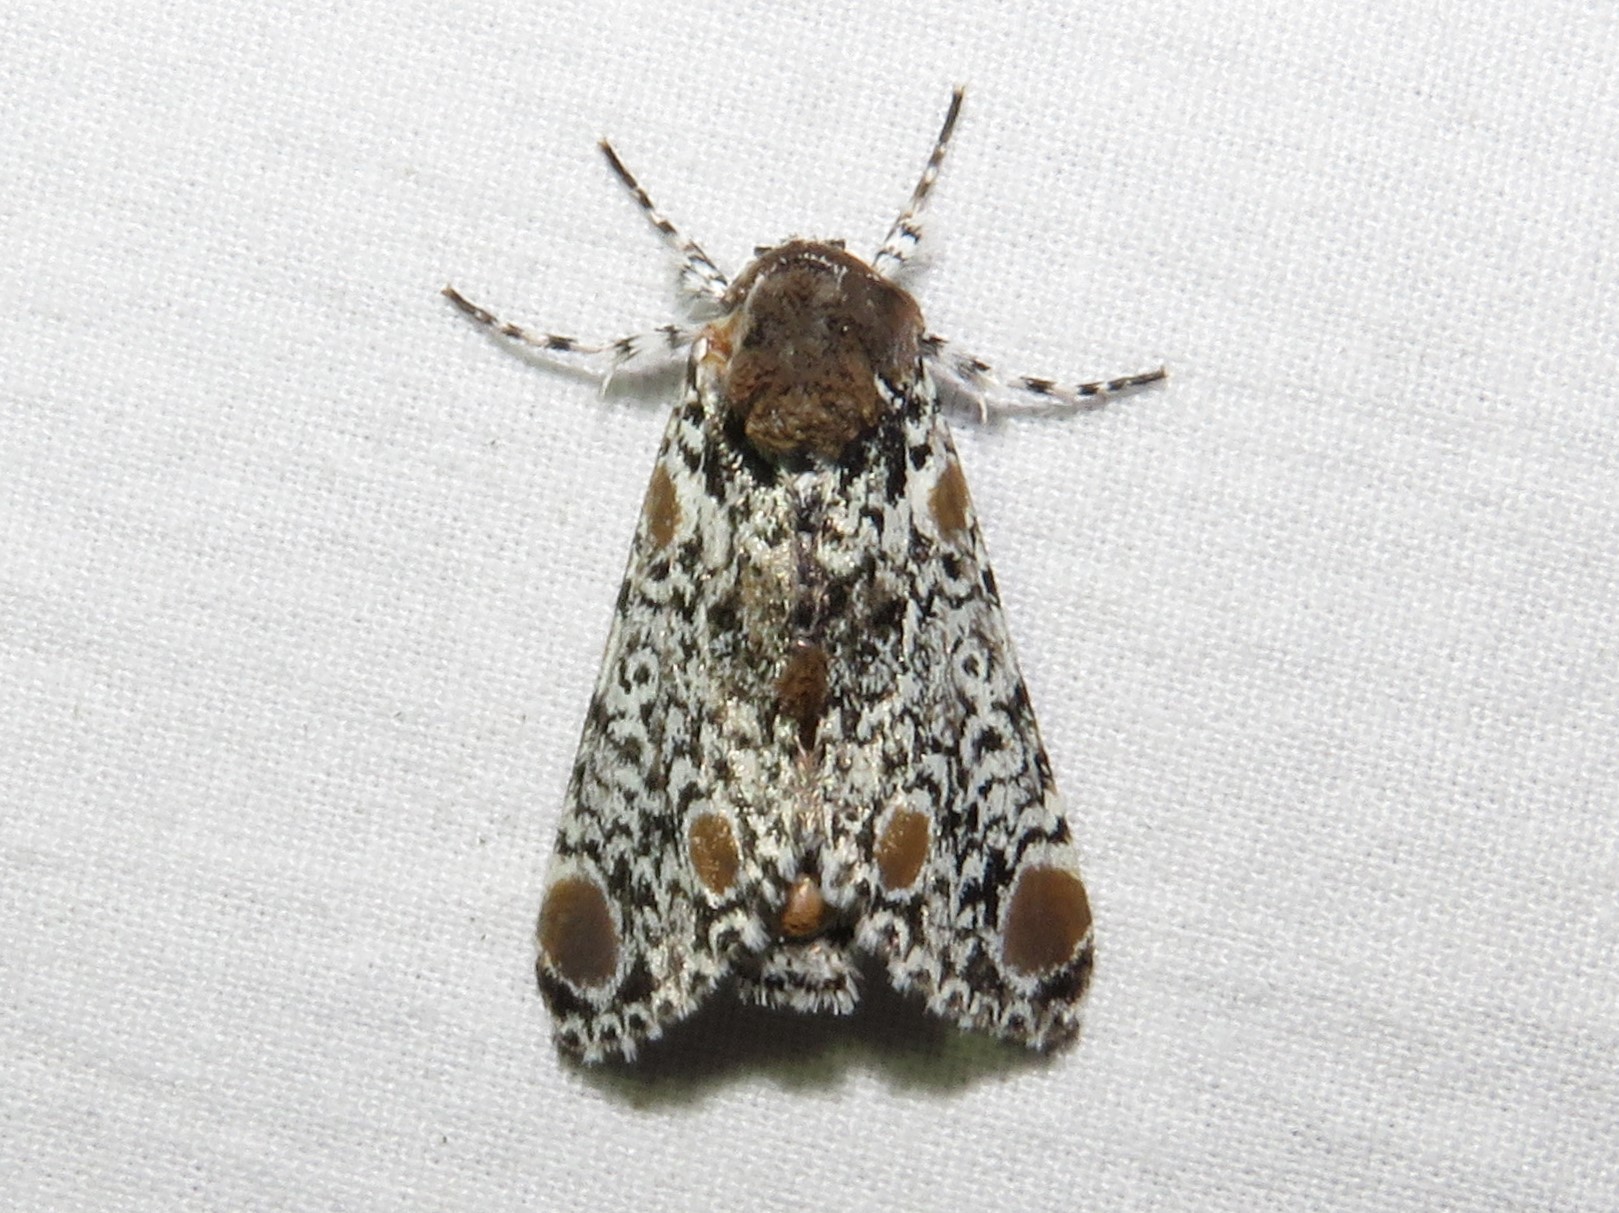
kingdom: Animalia
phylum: Arthropoda
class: Insecta
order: Lepidoptera
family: Noctuidae
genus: Harrisimemna
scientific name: Harrisimemna trisignata
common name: Harris threespot
